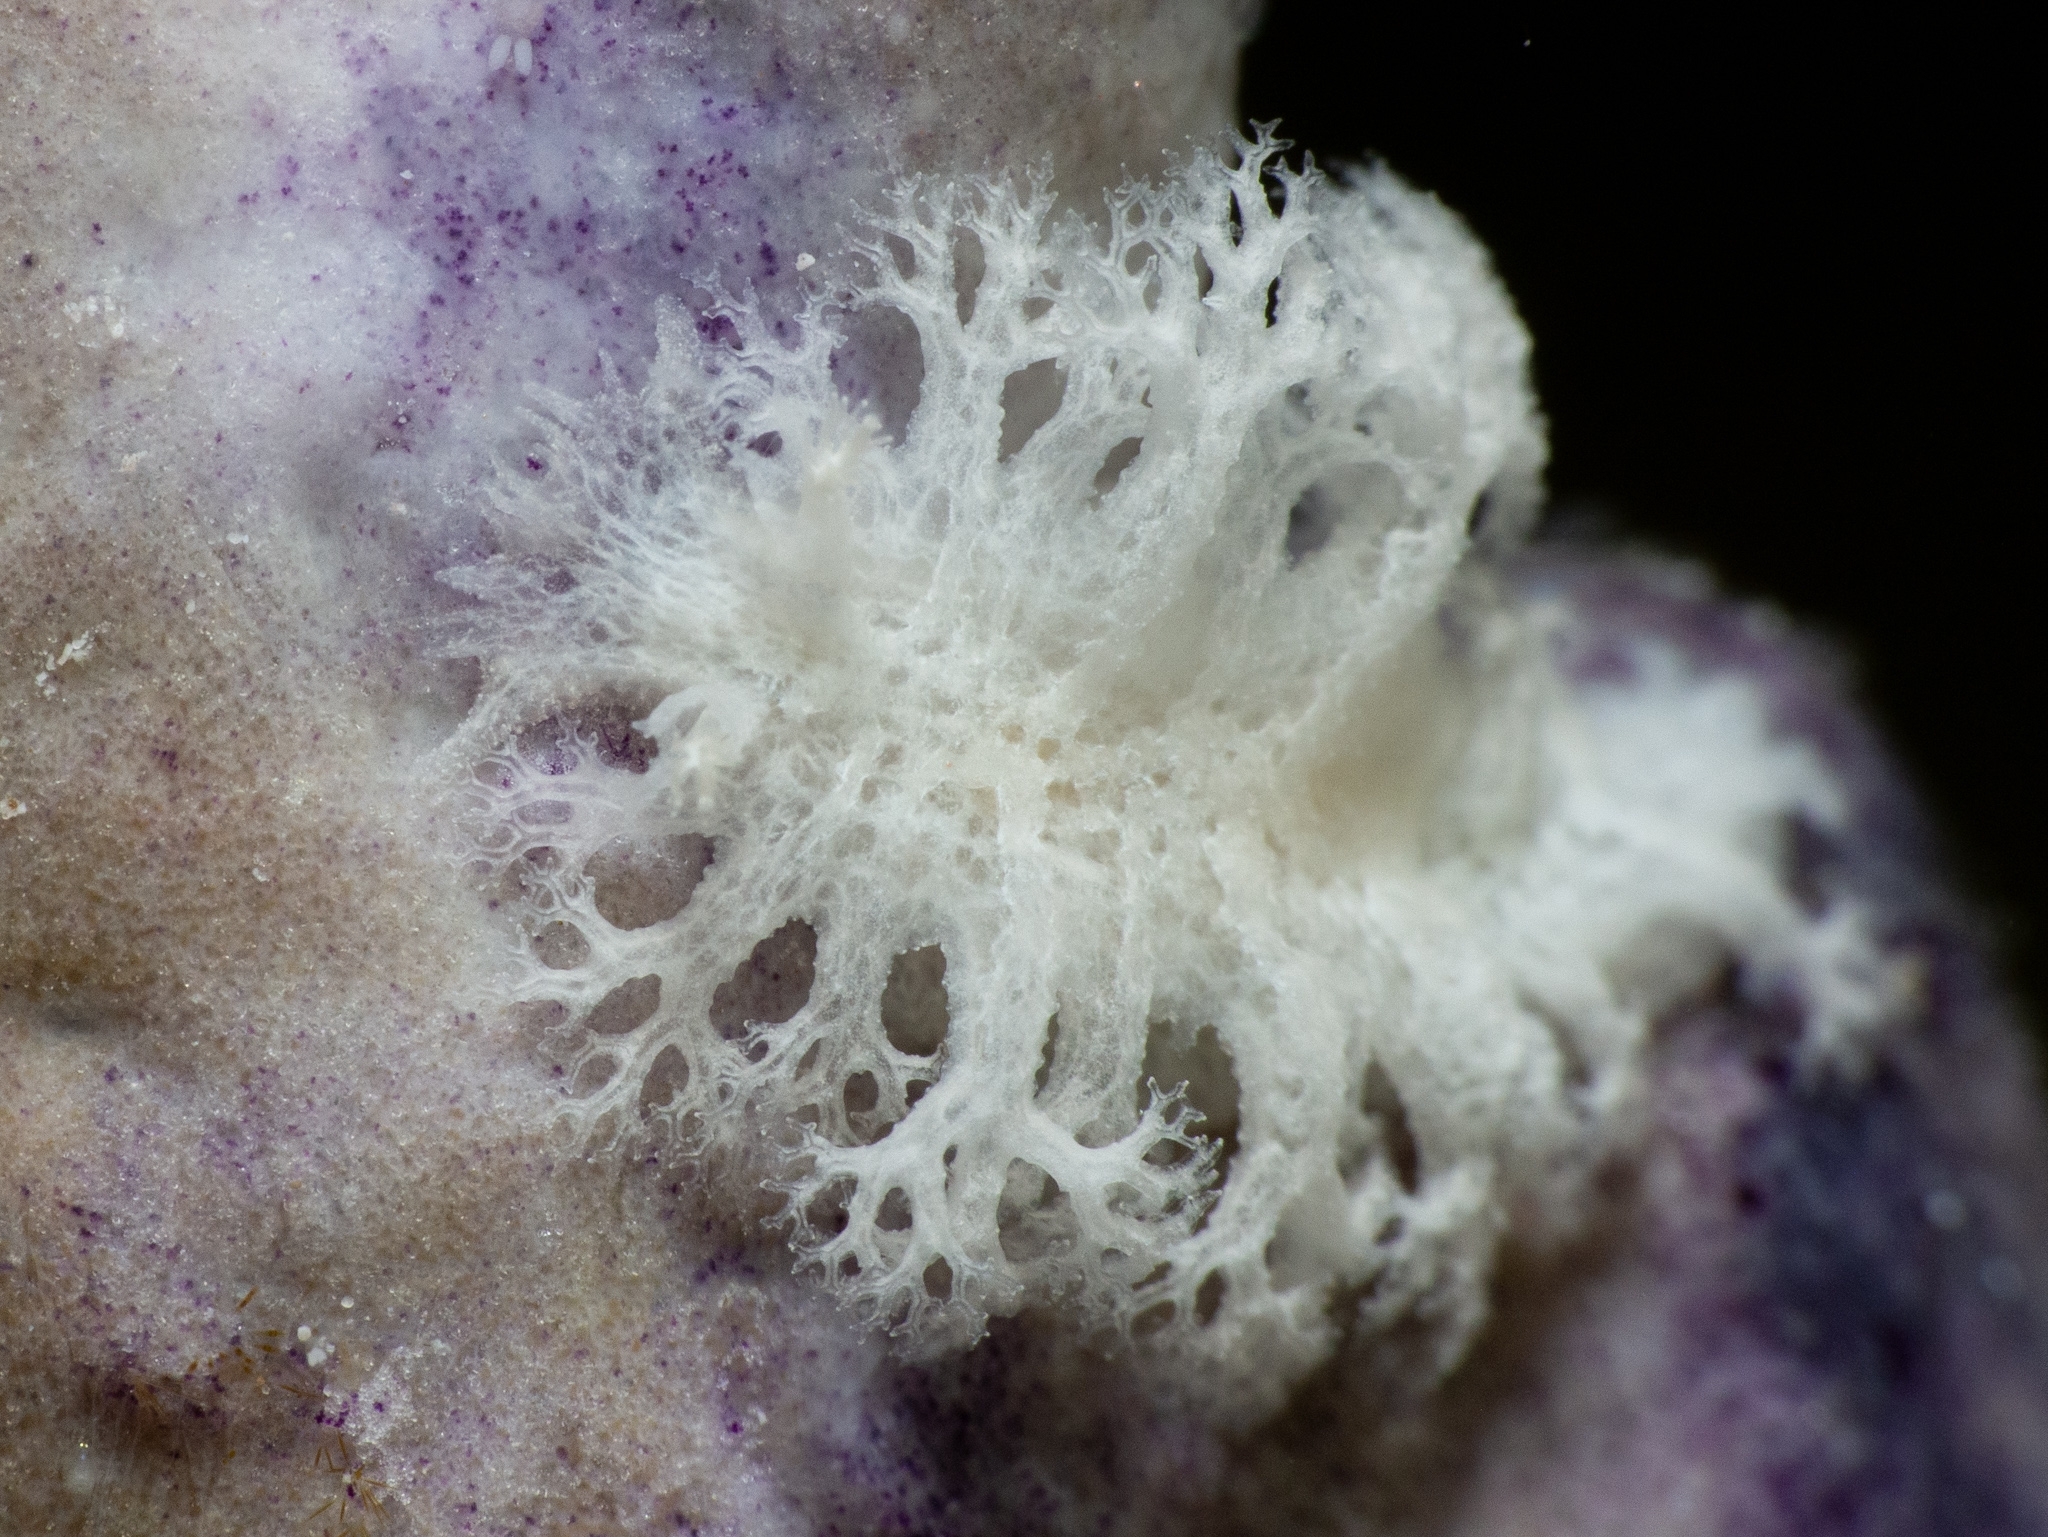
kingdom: Animalia
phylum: Mollusca
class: Gastropoda
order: Nudibranchia
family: Tritoniidae
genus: Tritoniopsis
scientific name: Tritoniopsis frydis
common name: Tufted tritoniopsis
